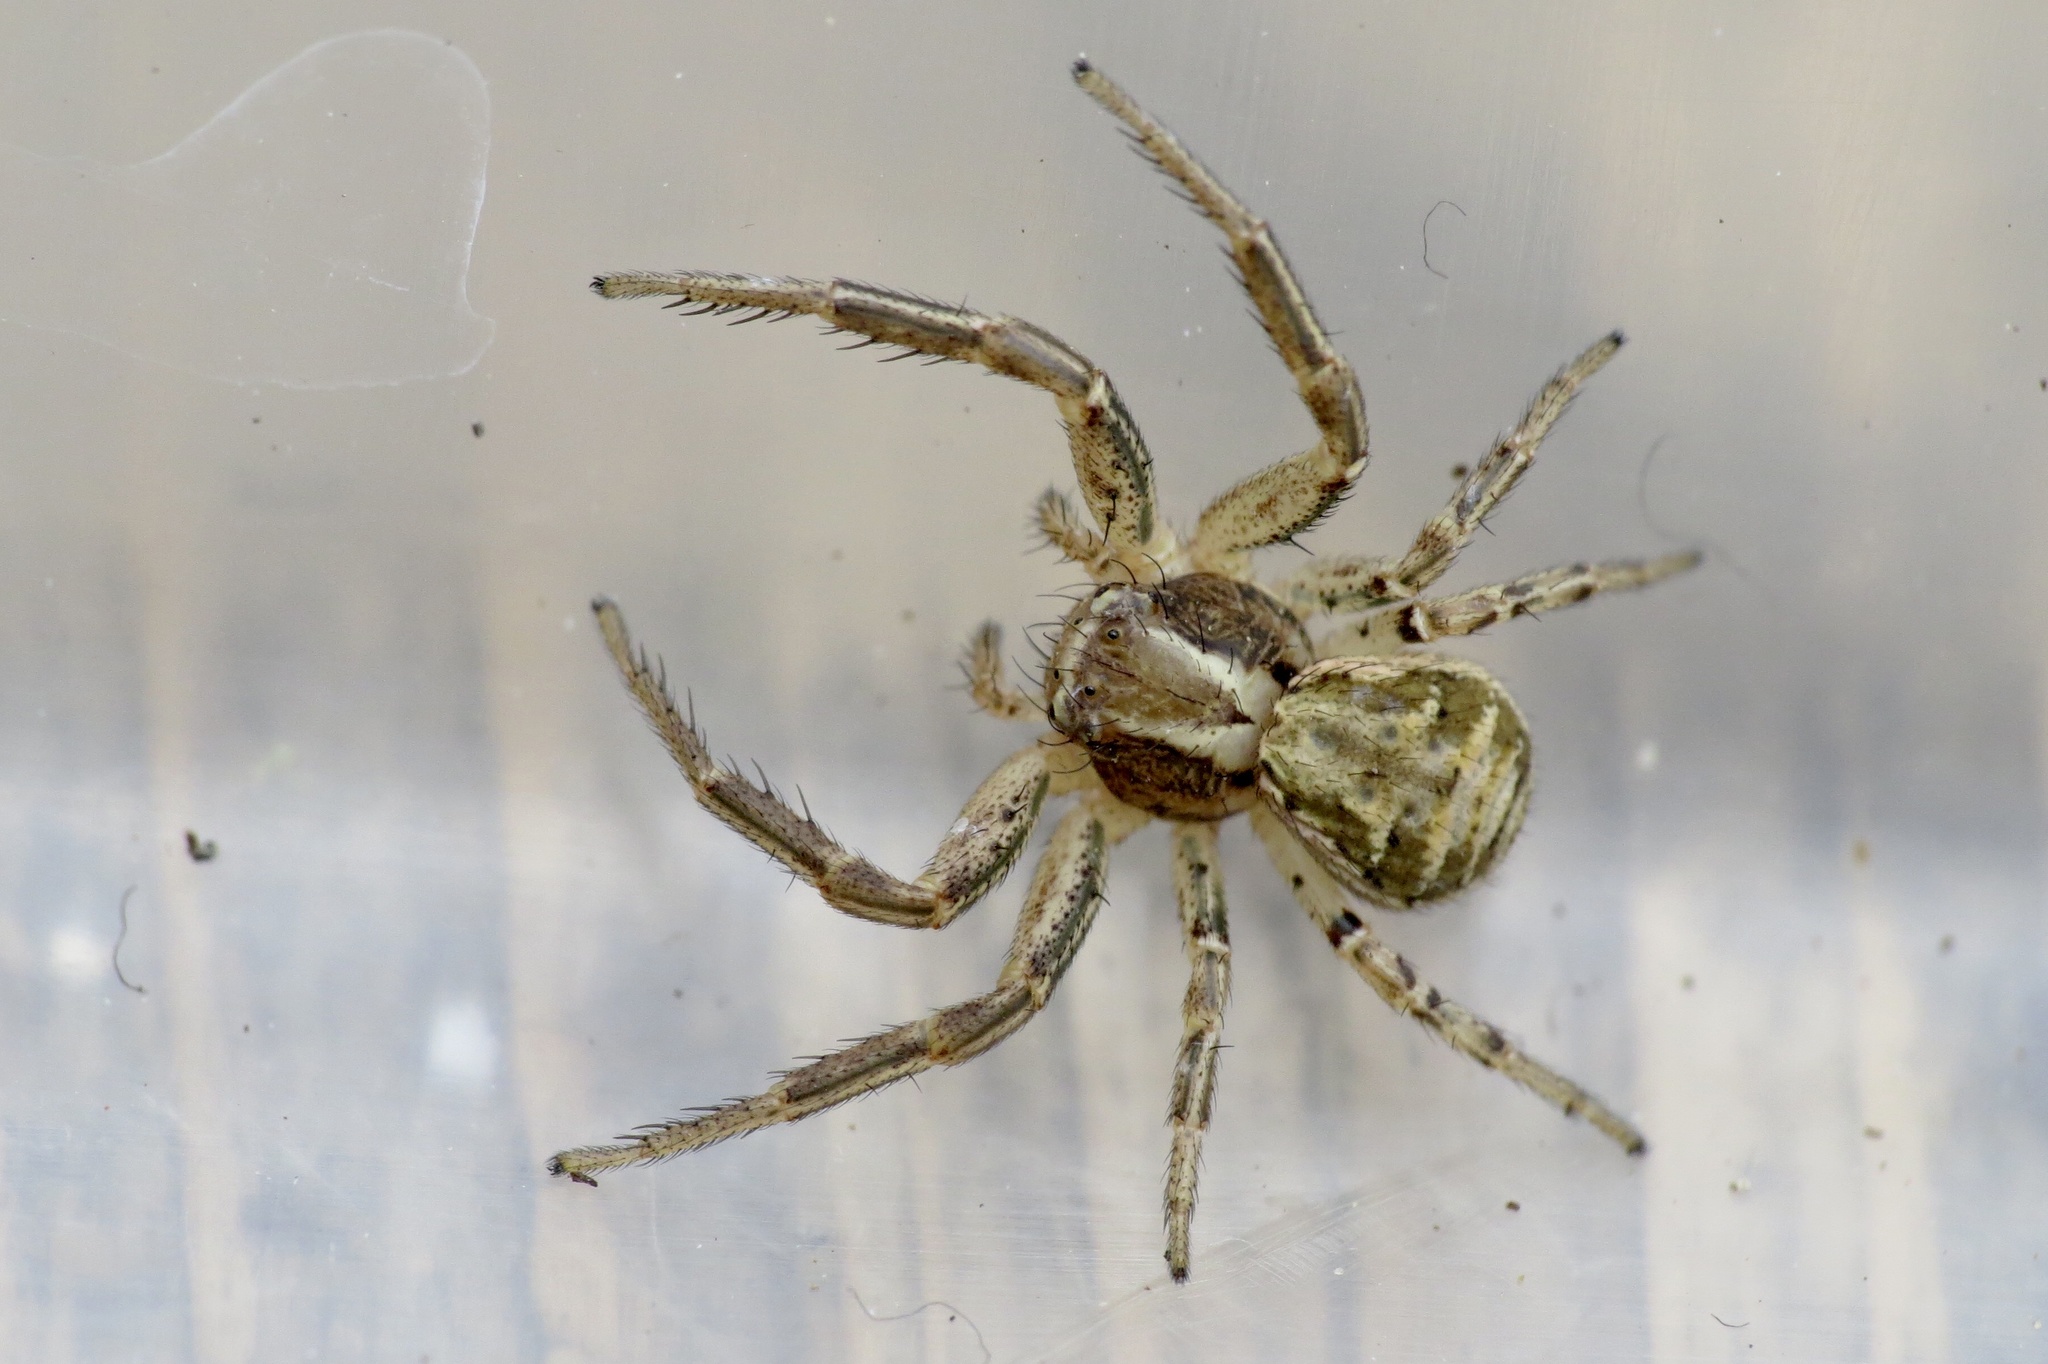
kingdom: Animalia
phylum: Arthropoda
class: Arachnida
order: Araneae
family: Thomisidae
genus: Xysticus
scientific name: Xysticus
